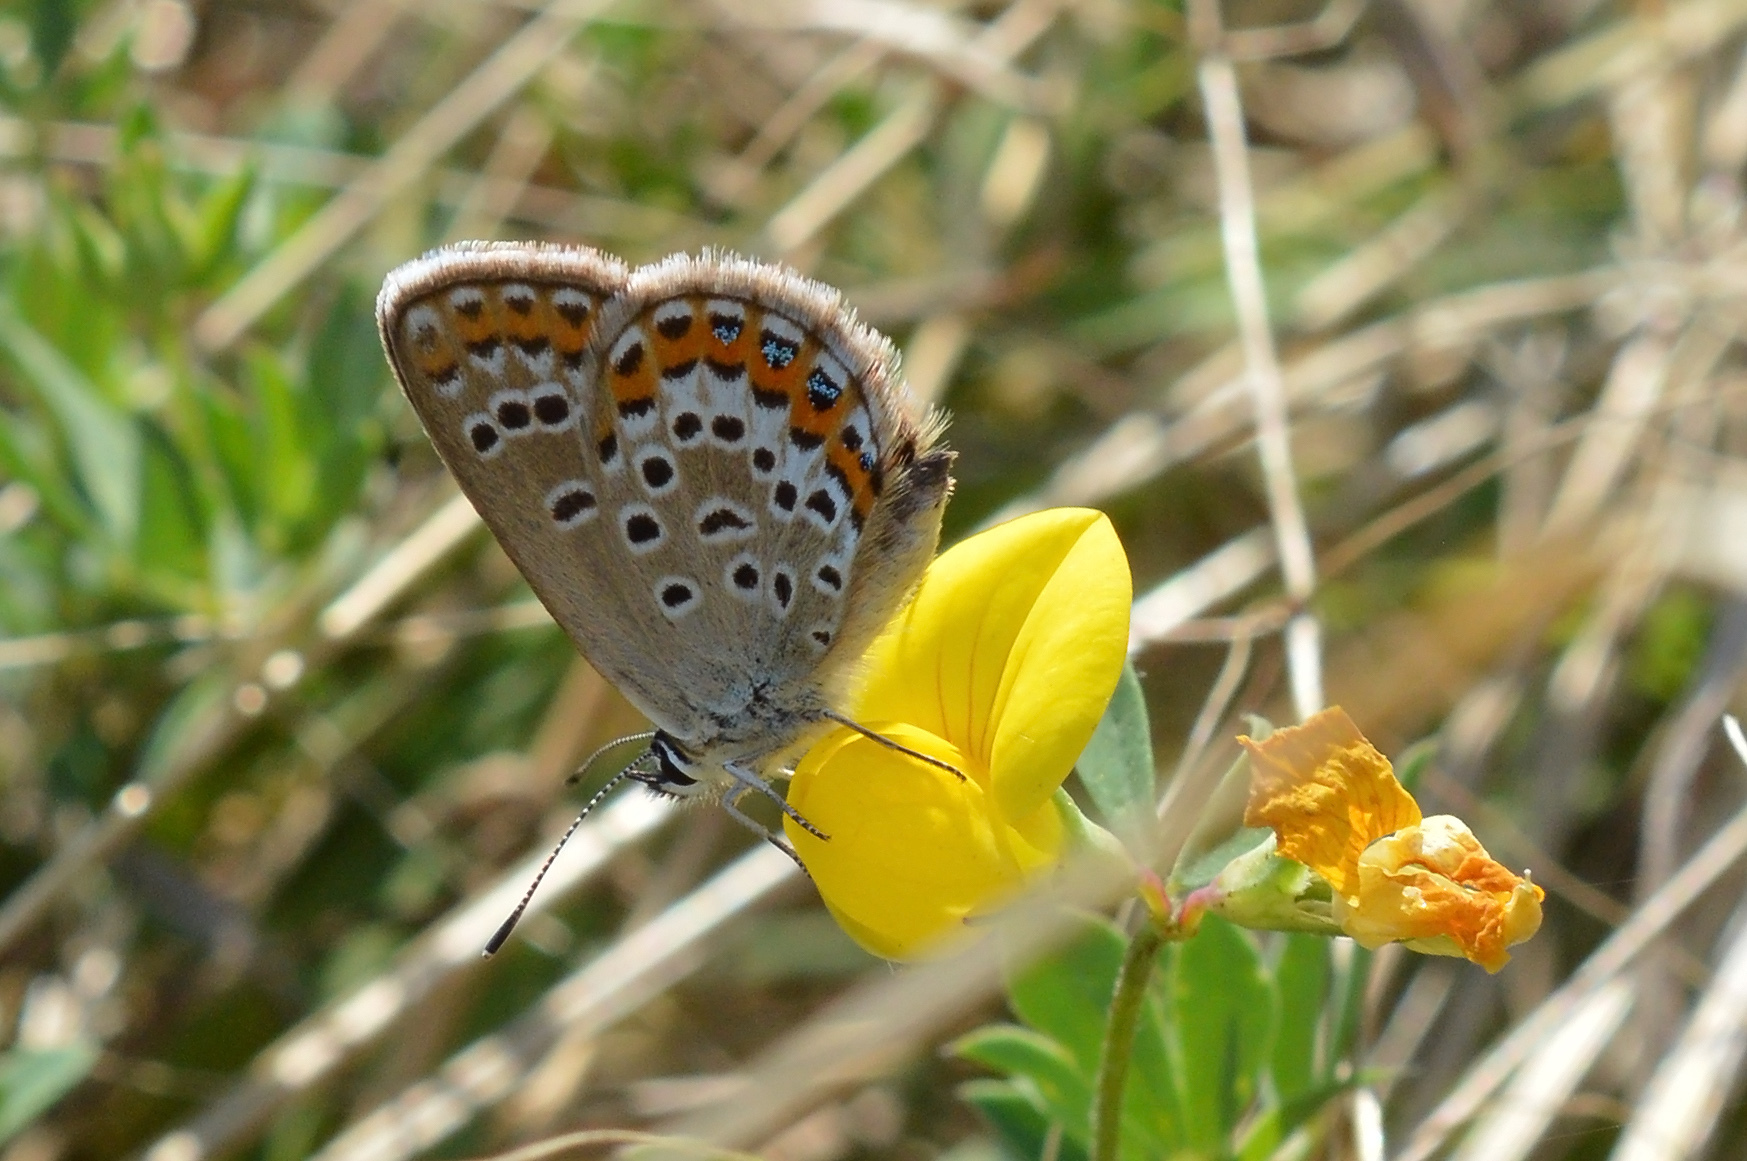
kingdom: Animalia
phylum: Arthropoda
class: Insecta
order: Lepidoptera
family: Lycaenidae
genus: Plebejus
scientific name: Plebejus argus
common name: Silver-studded blue
